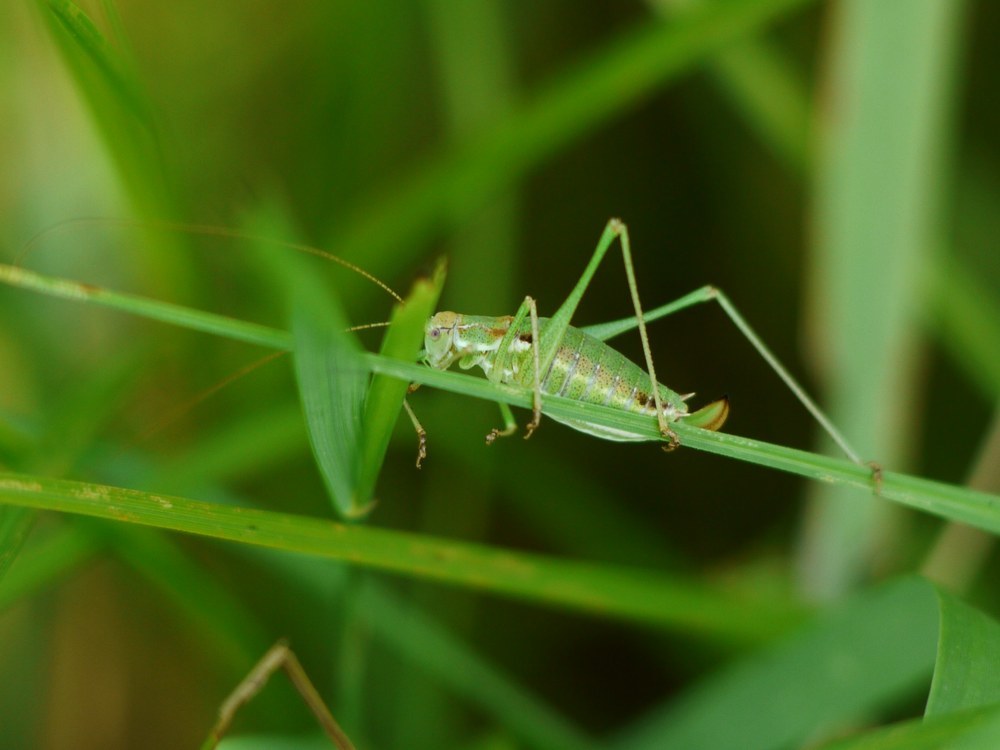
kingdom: Animalia
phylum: Arthropoda
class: Insecta
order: Orthoptera
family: Tettigoniidae
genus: Leptophyes
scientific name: Leptophyes albovittata
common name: Striped bush-cricket
